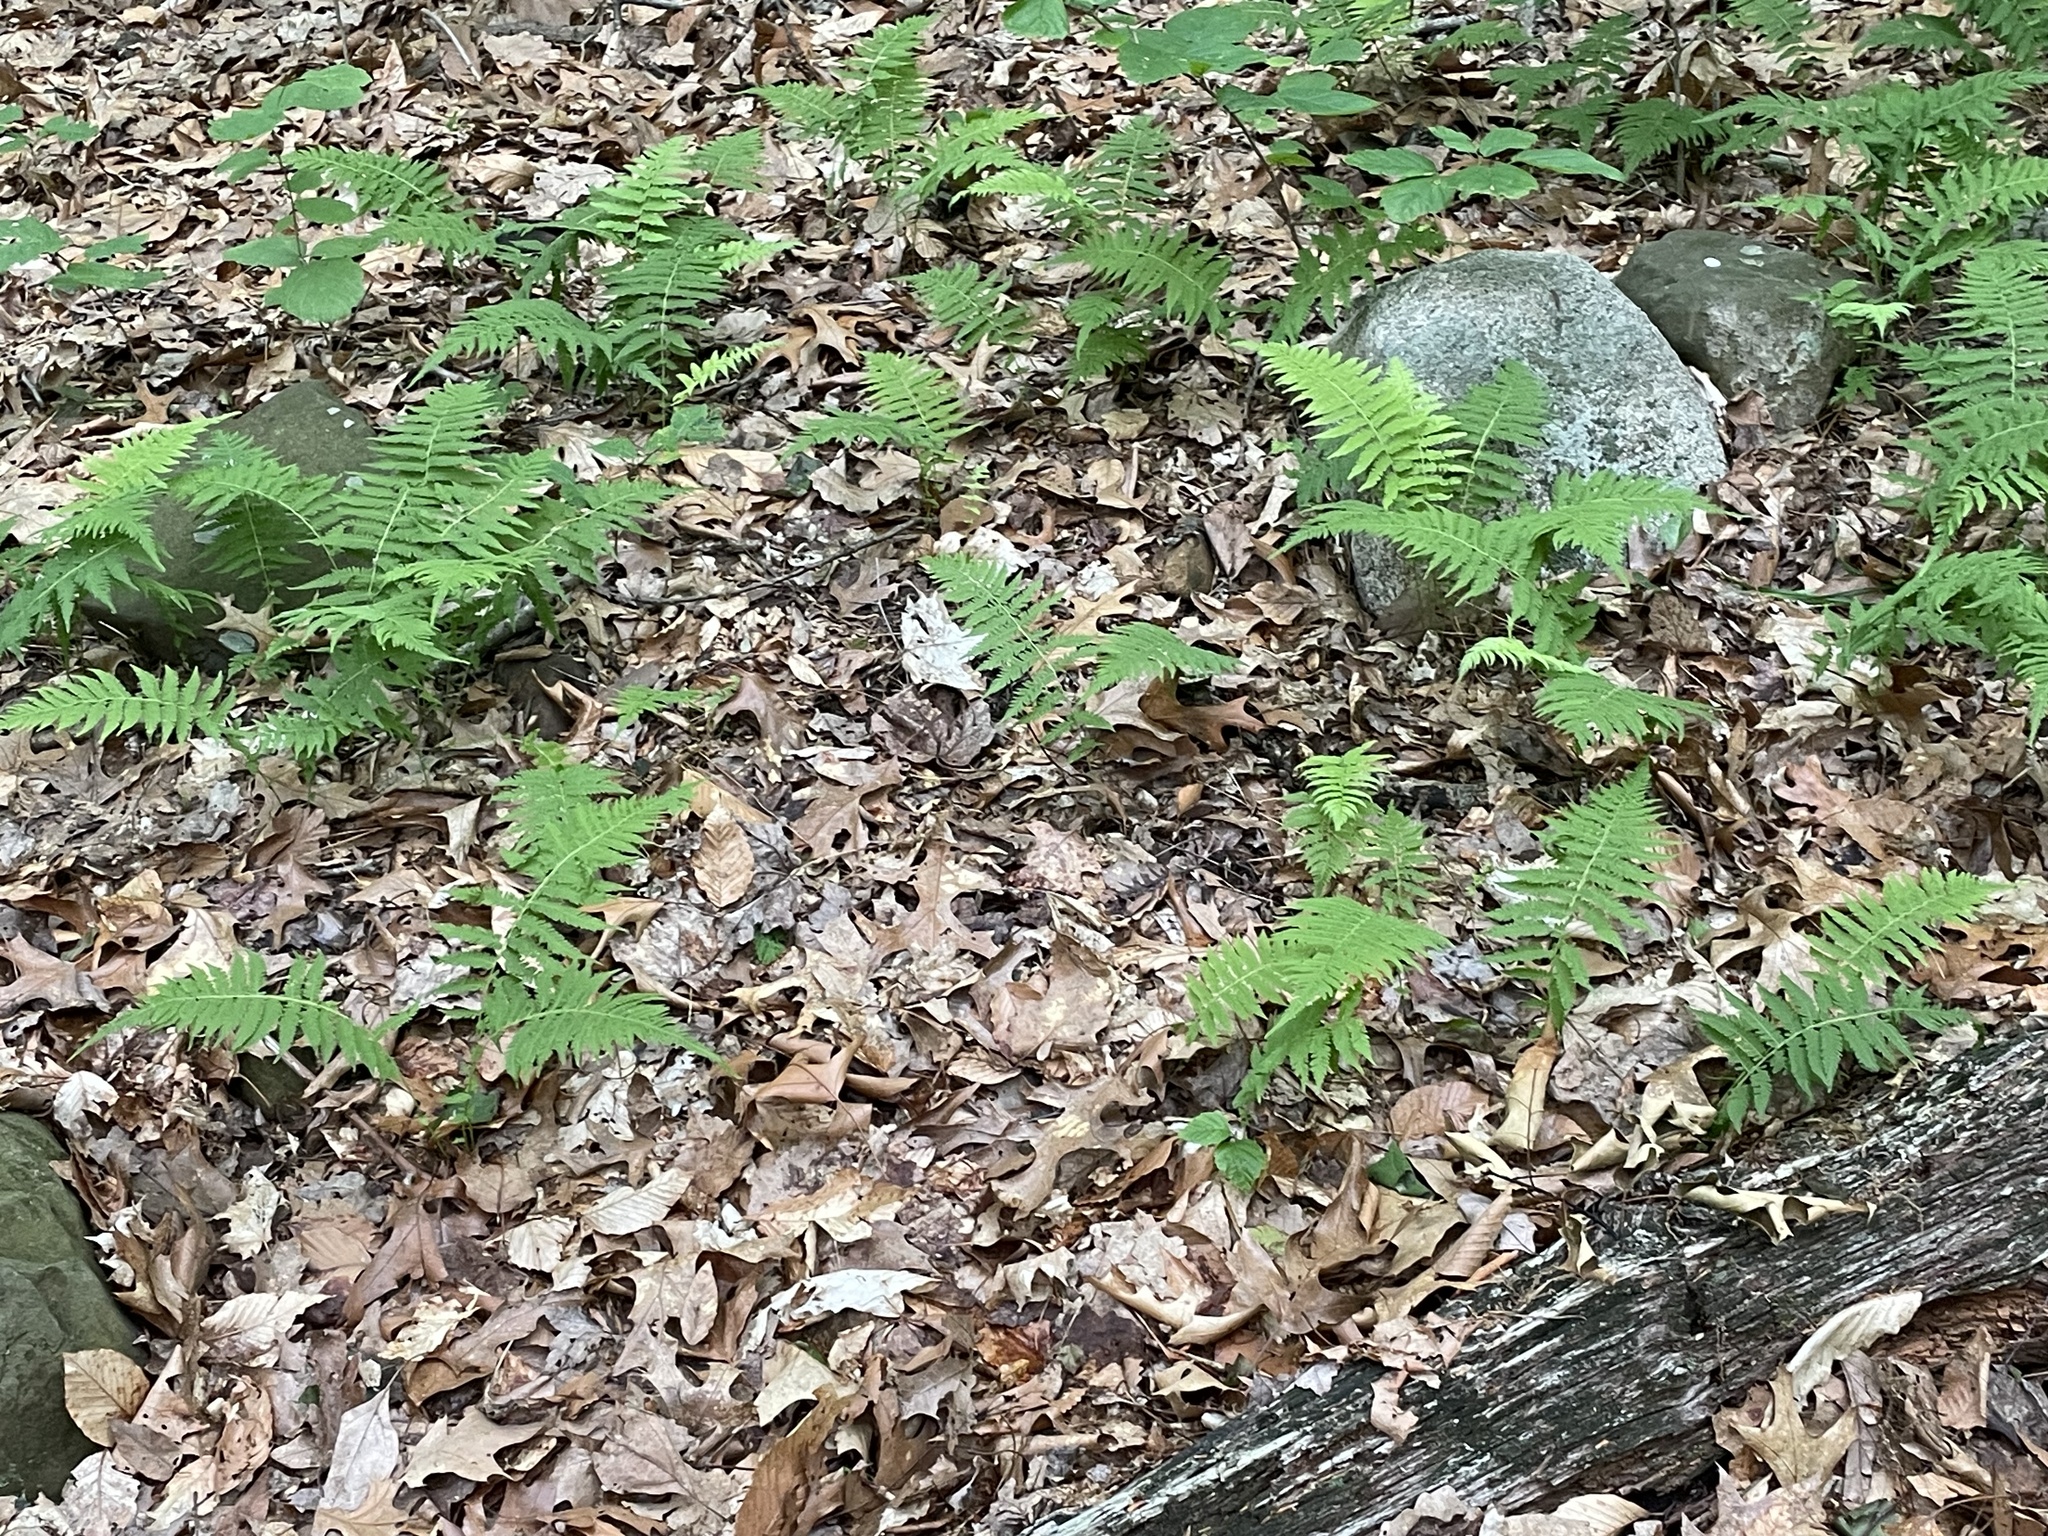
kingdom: Plantae
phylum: Tracheophyta
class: Polypodiopsida
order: Polypodiales
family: Thelypteridaceae
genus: Amauropelta
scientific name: Amauropelta noveboracensis
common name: New york fern
